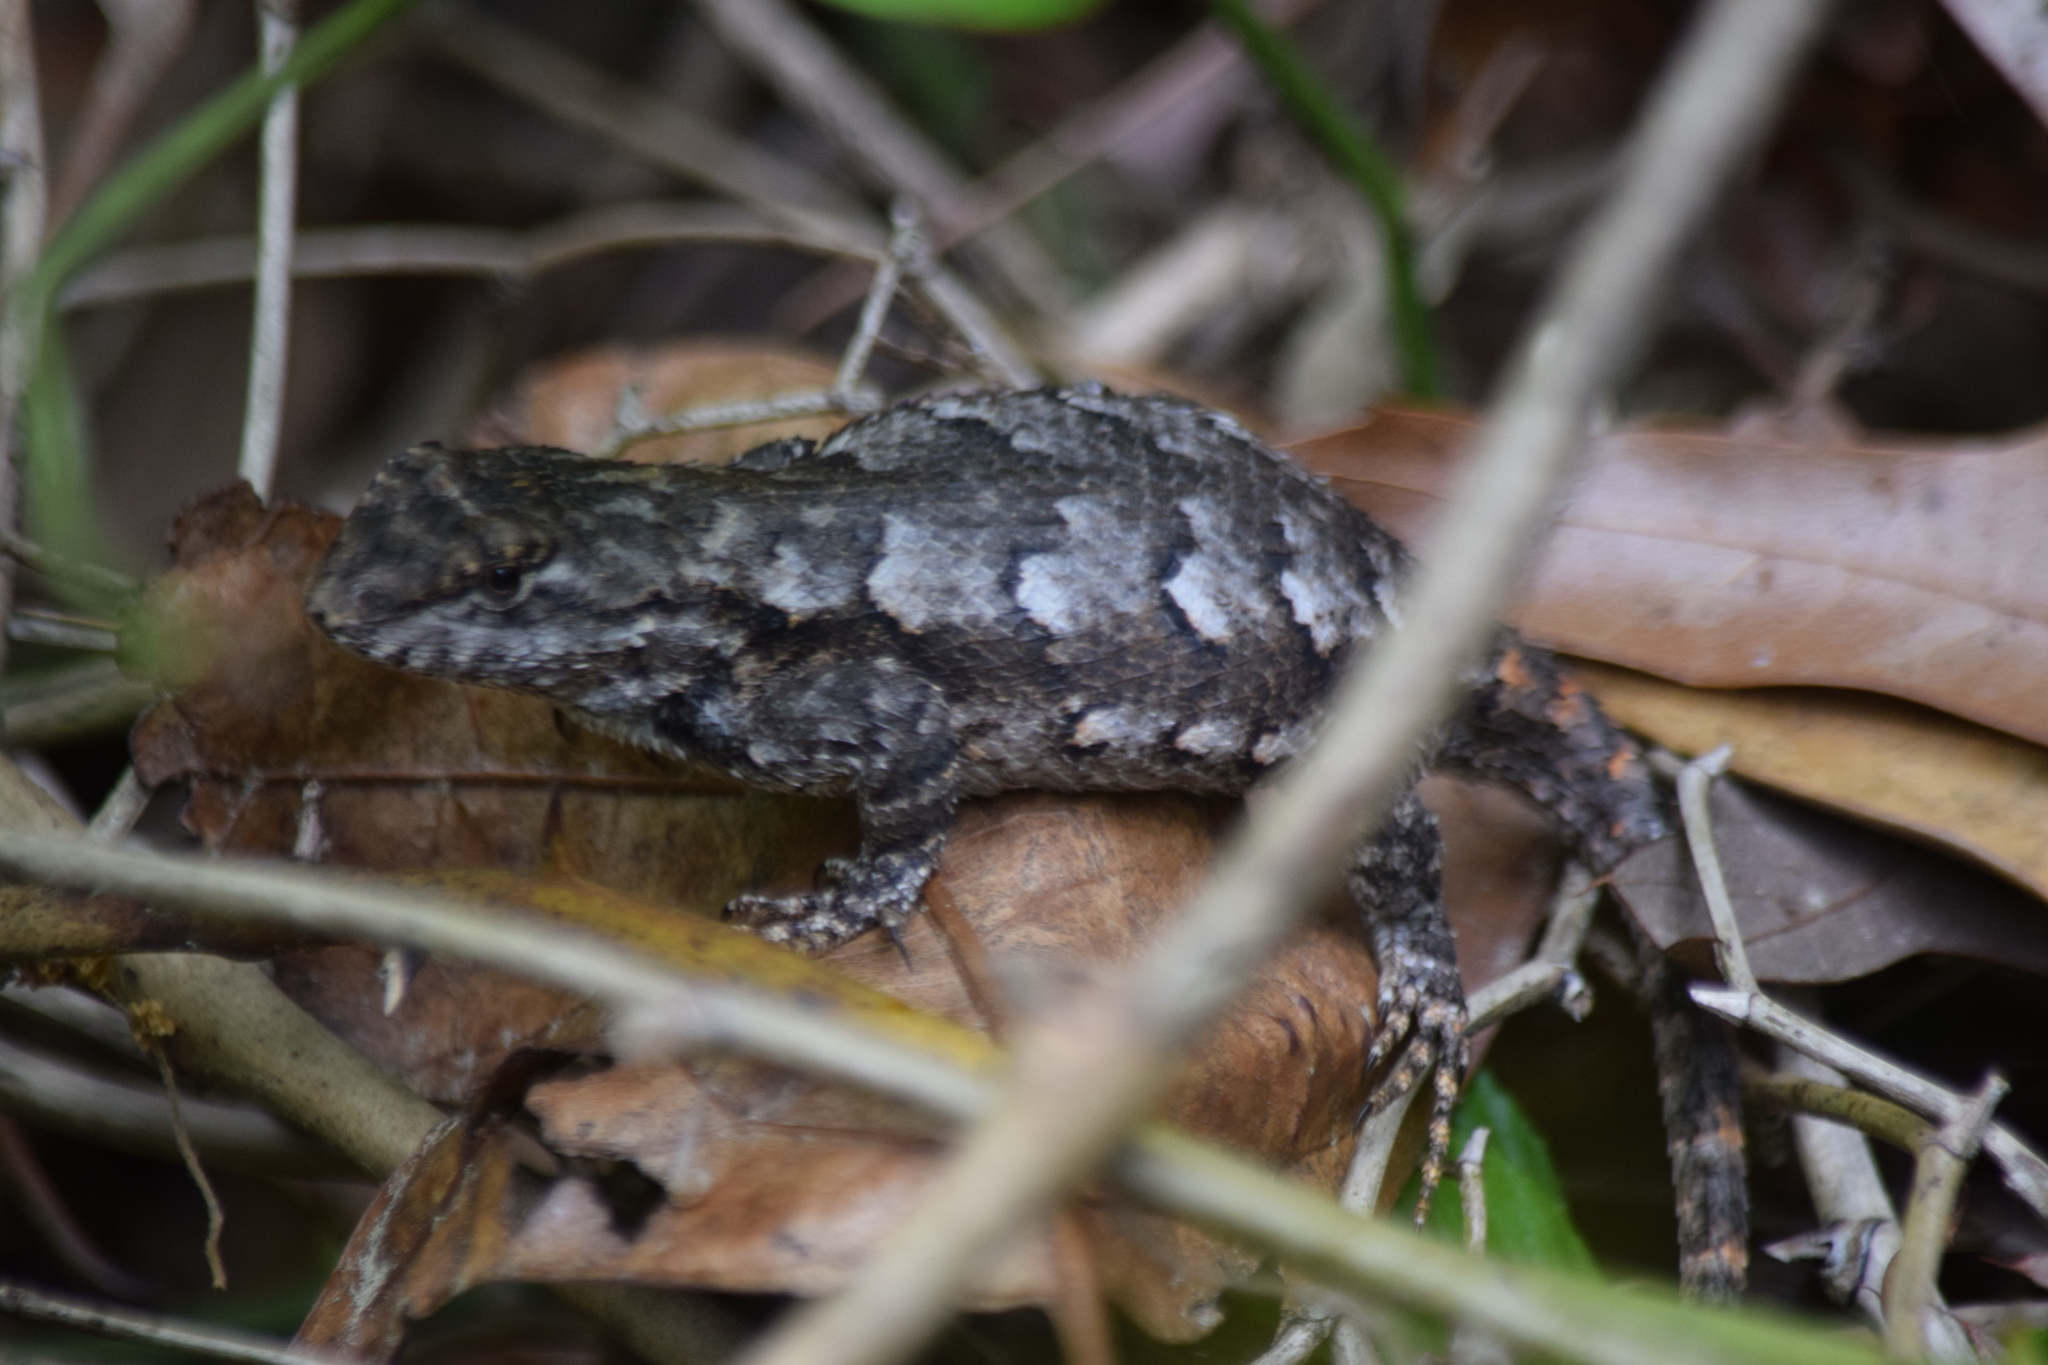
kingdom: Animalia
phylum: Chordata
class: Squamata
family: Phrynosomatidae
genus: Sceloporus
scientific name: Sceloporus undulatus
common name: Eastern fence lizard
